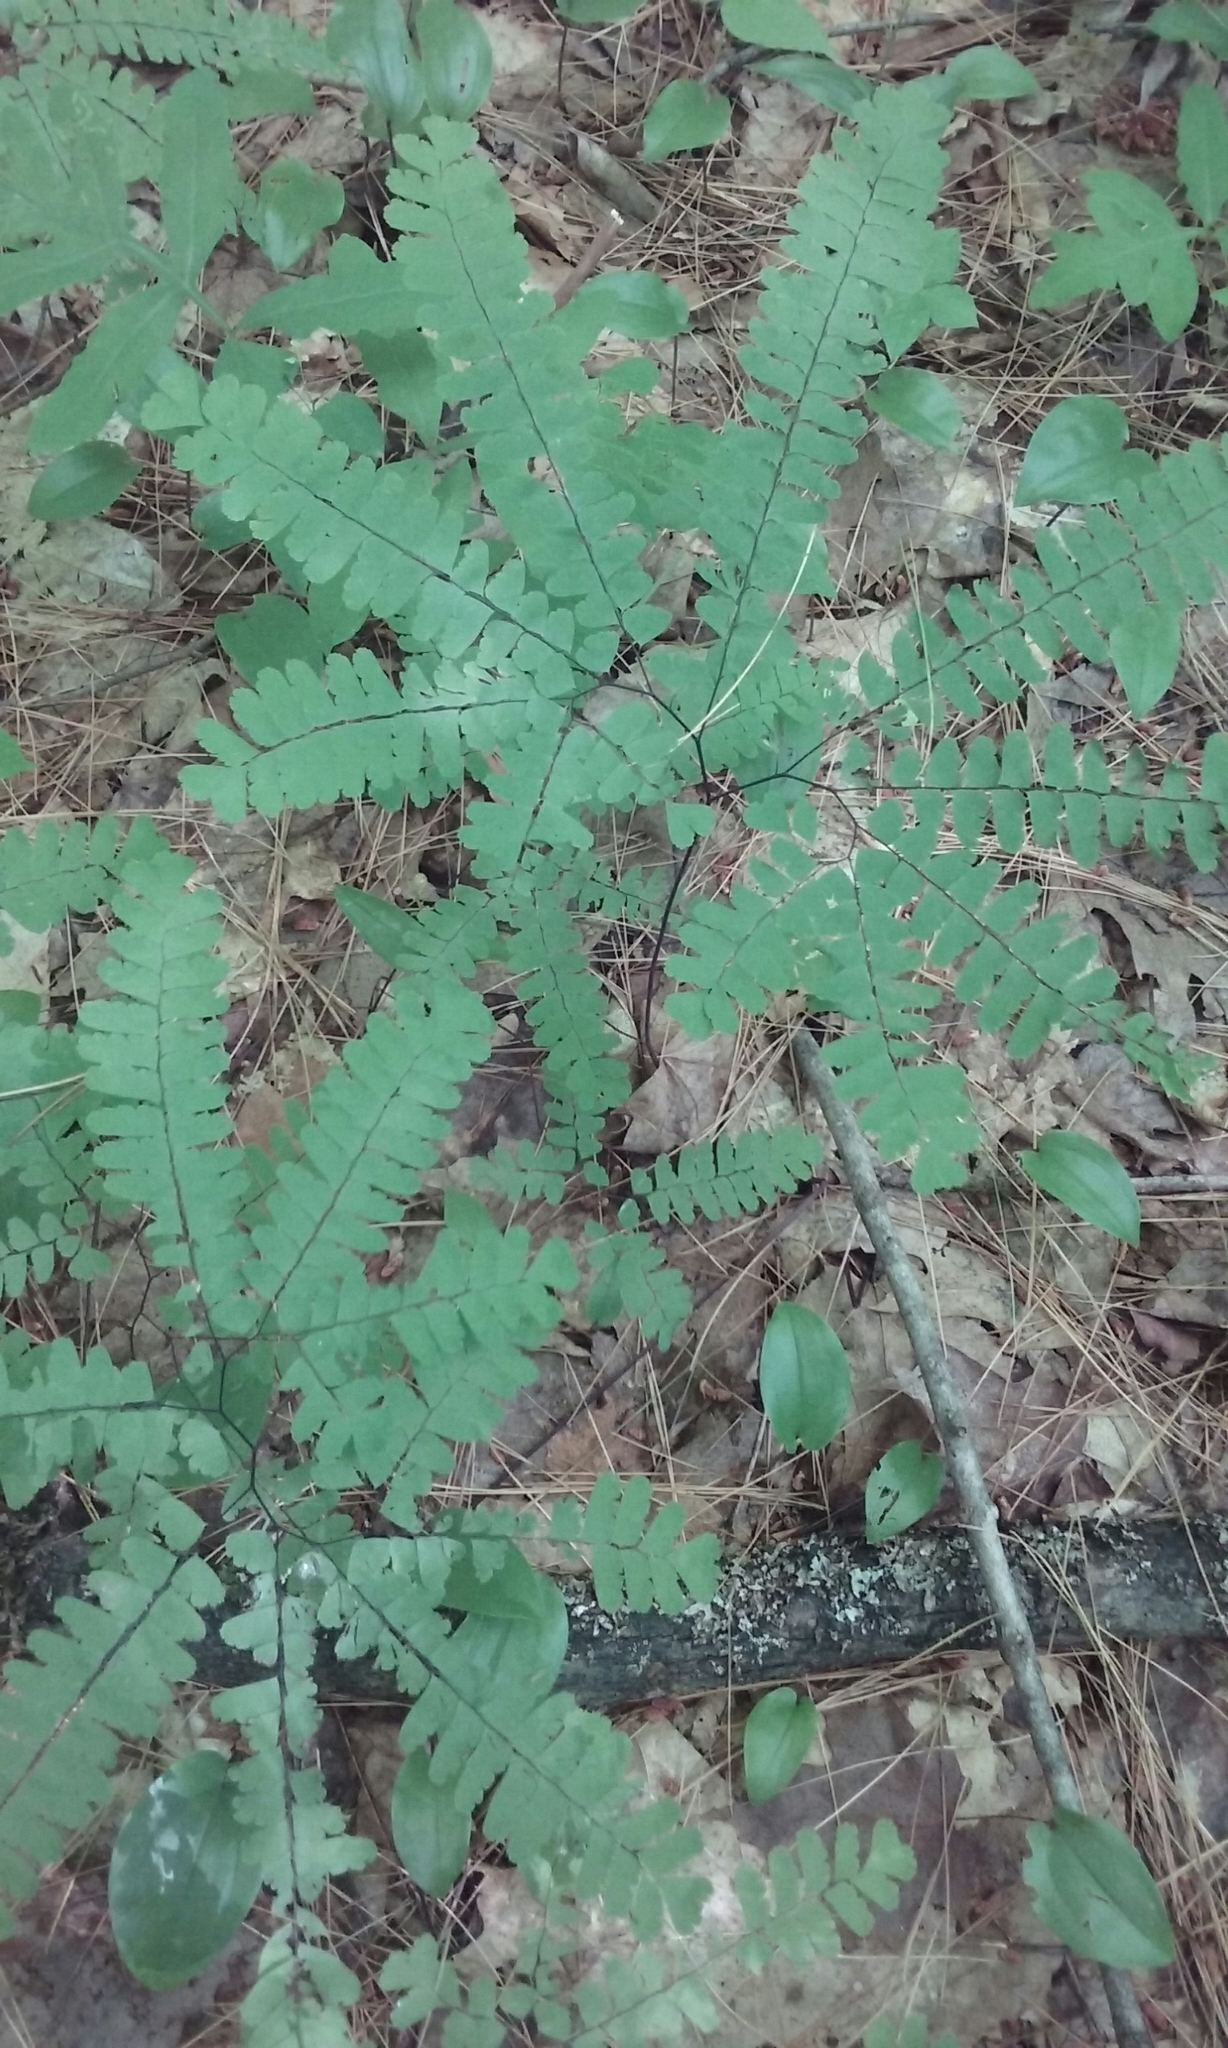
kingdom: Plantae
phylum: Tracheophyta
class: Polypodiopsida
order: Polypodiales
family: Pteridaceae
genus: Adiantum
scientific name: Adiantum pedatum
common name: Five-finger fern
